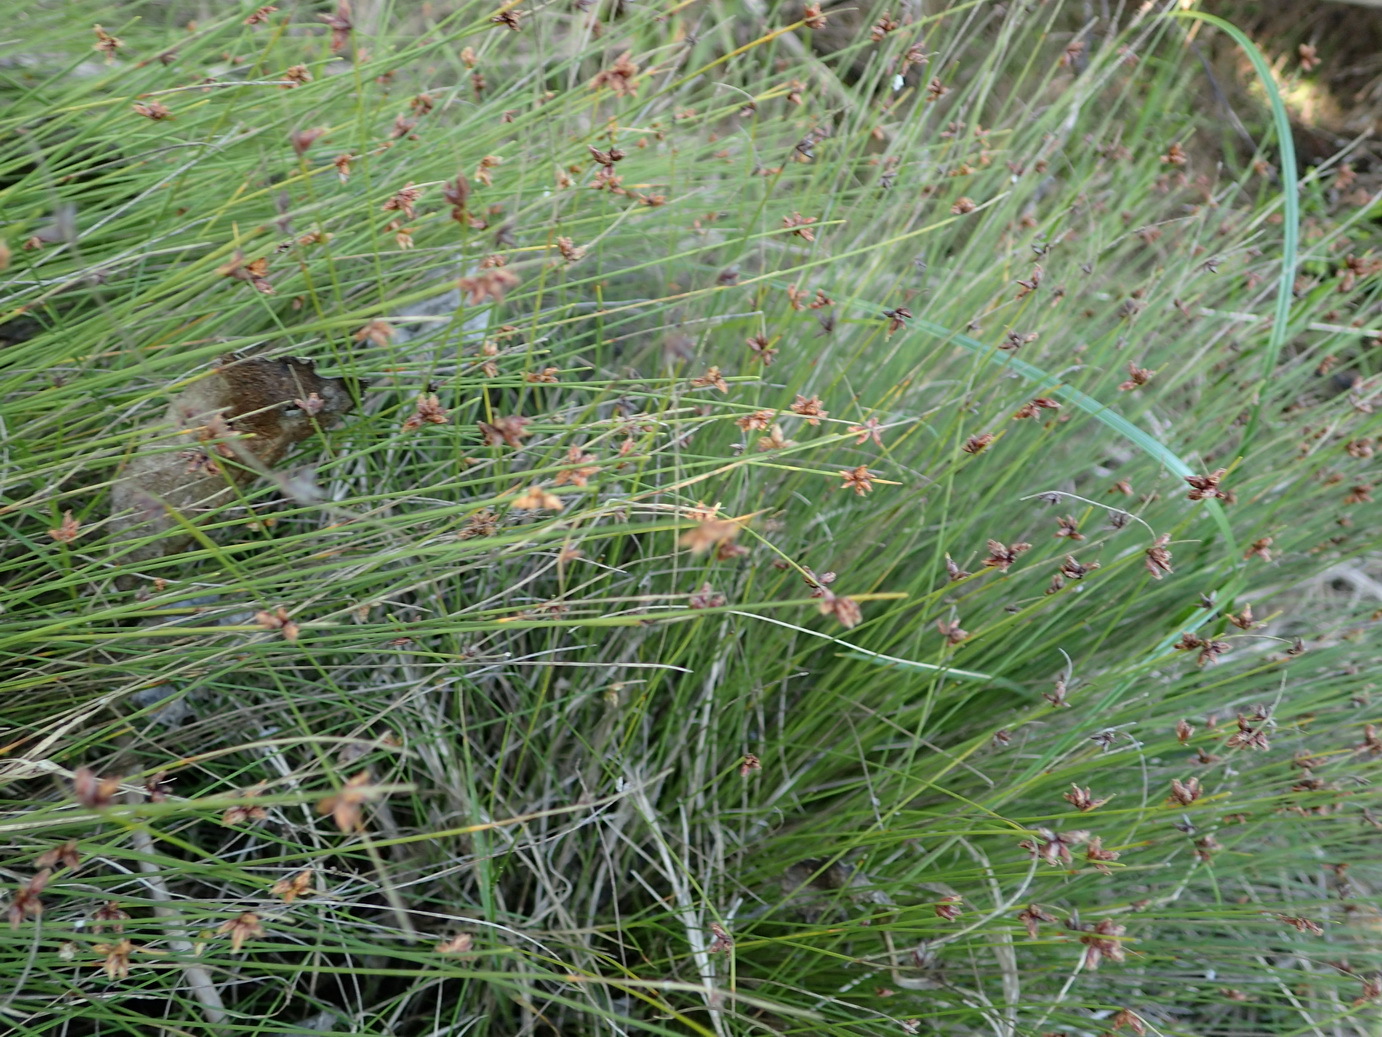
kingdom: Plantae
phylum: Tracheophyta
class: Liliopsida
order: Poales
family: Cyperaceae
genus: Ficinia
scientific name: Ficinia acuminata
